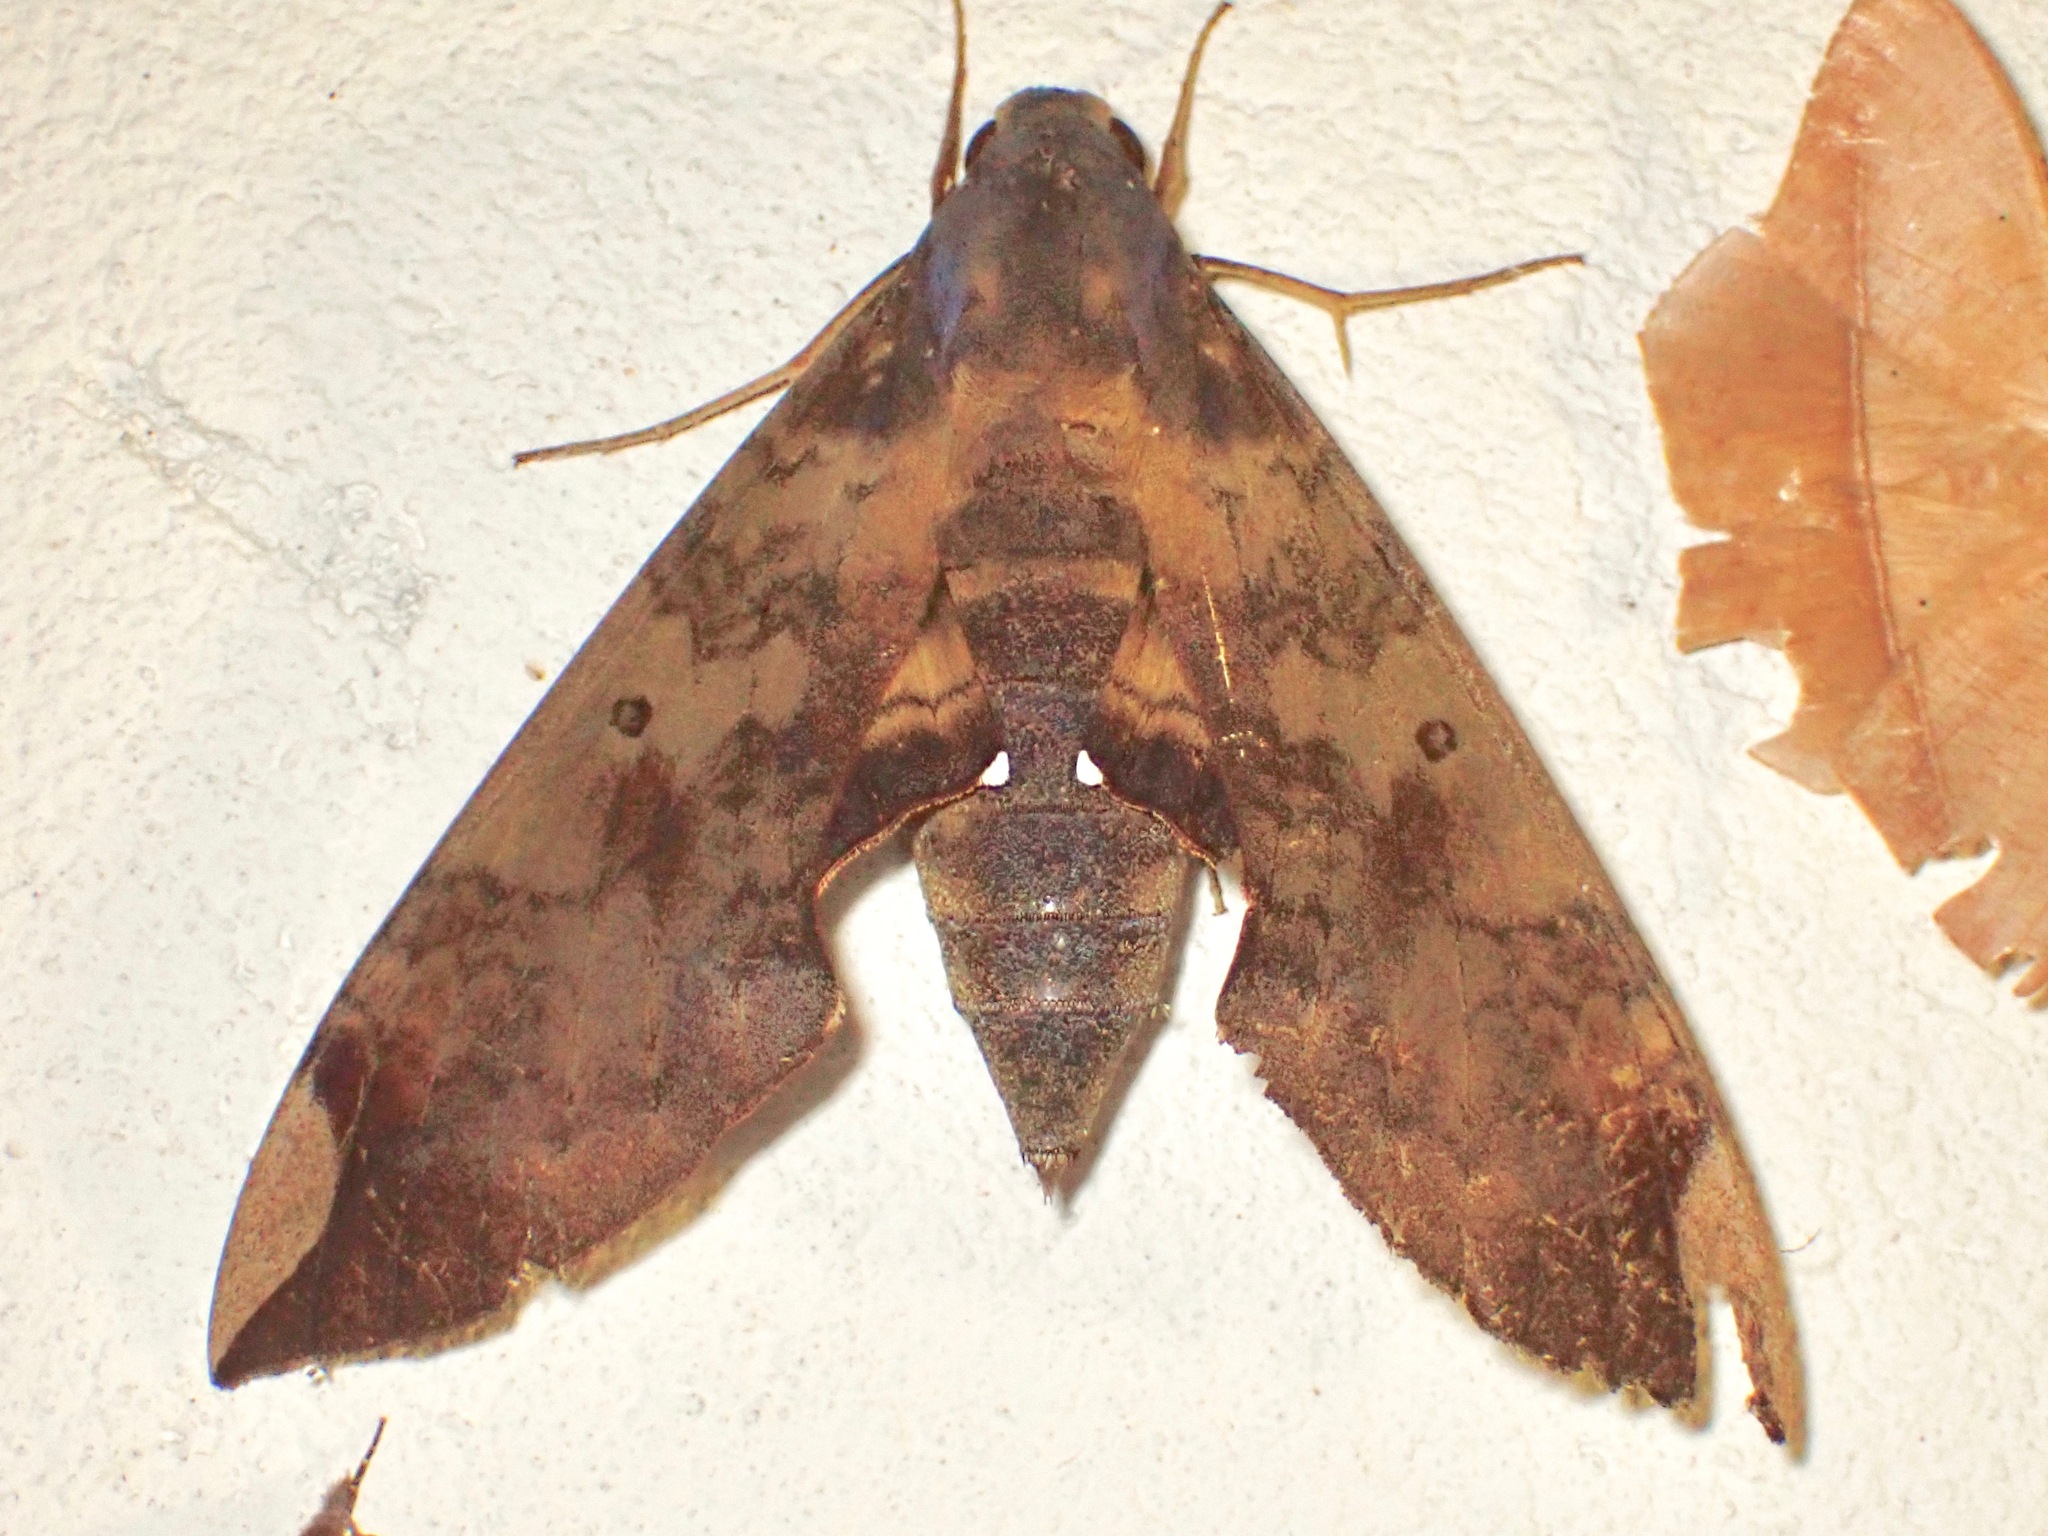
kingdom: Animalia
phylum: Arthropoda
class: Insecta
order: Lepidoptera
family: Sphingidae
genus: Pachylia
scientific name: Pachylia ficus
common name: Fig sphinx
